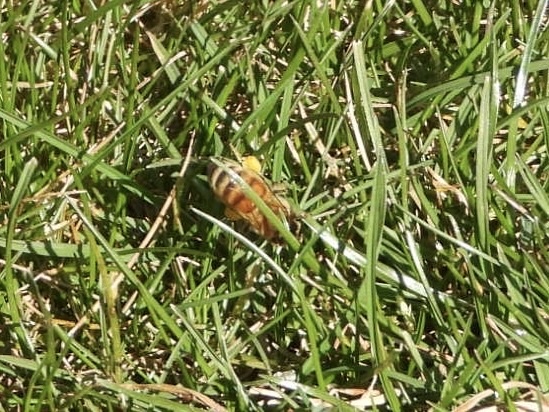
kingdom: Animalia
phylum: Arthropoda
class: Insecta
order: Hymenoptera
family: Apidae
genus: Apis
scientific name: Apis mellifera
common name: Honey bee
